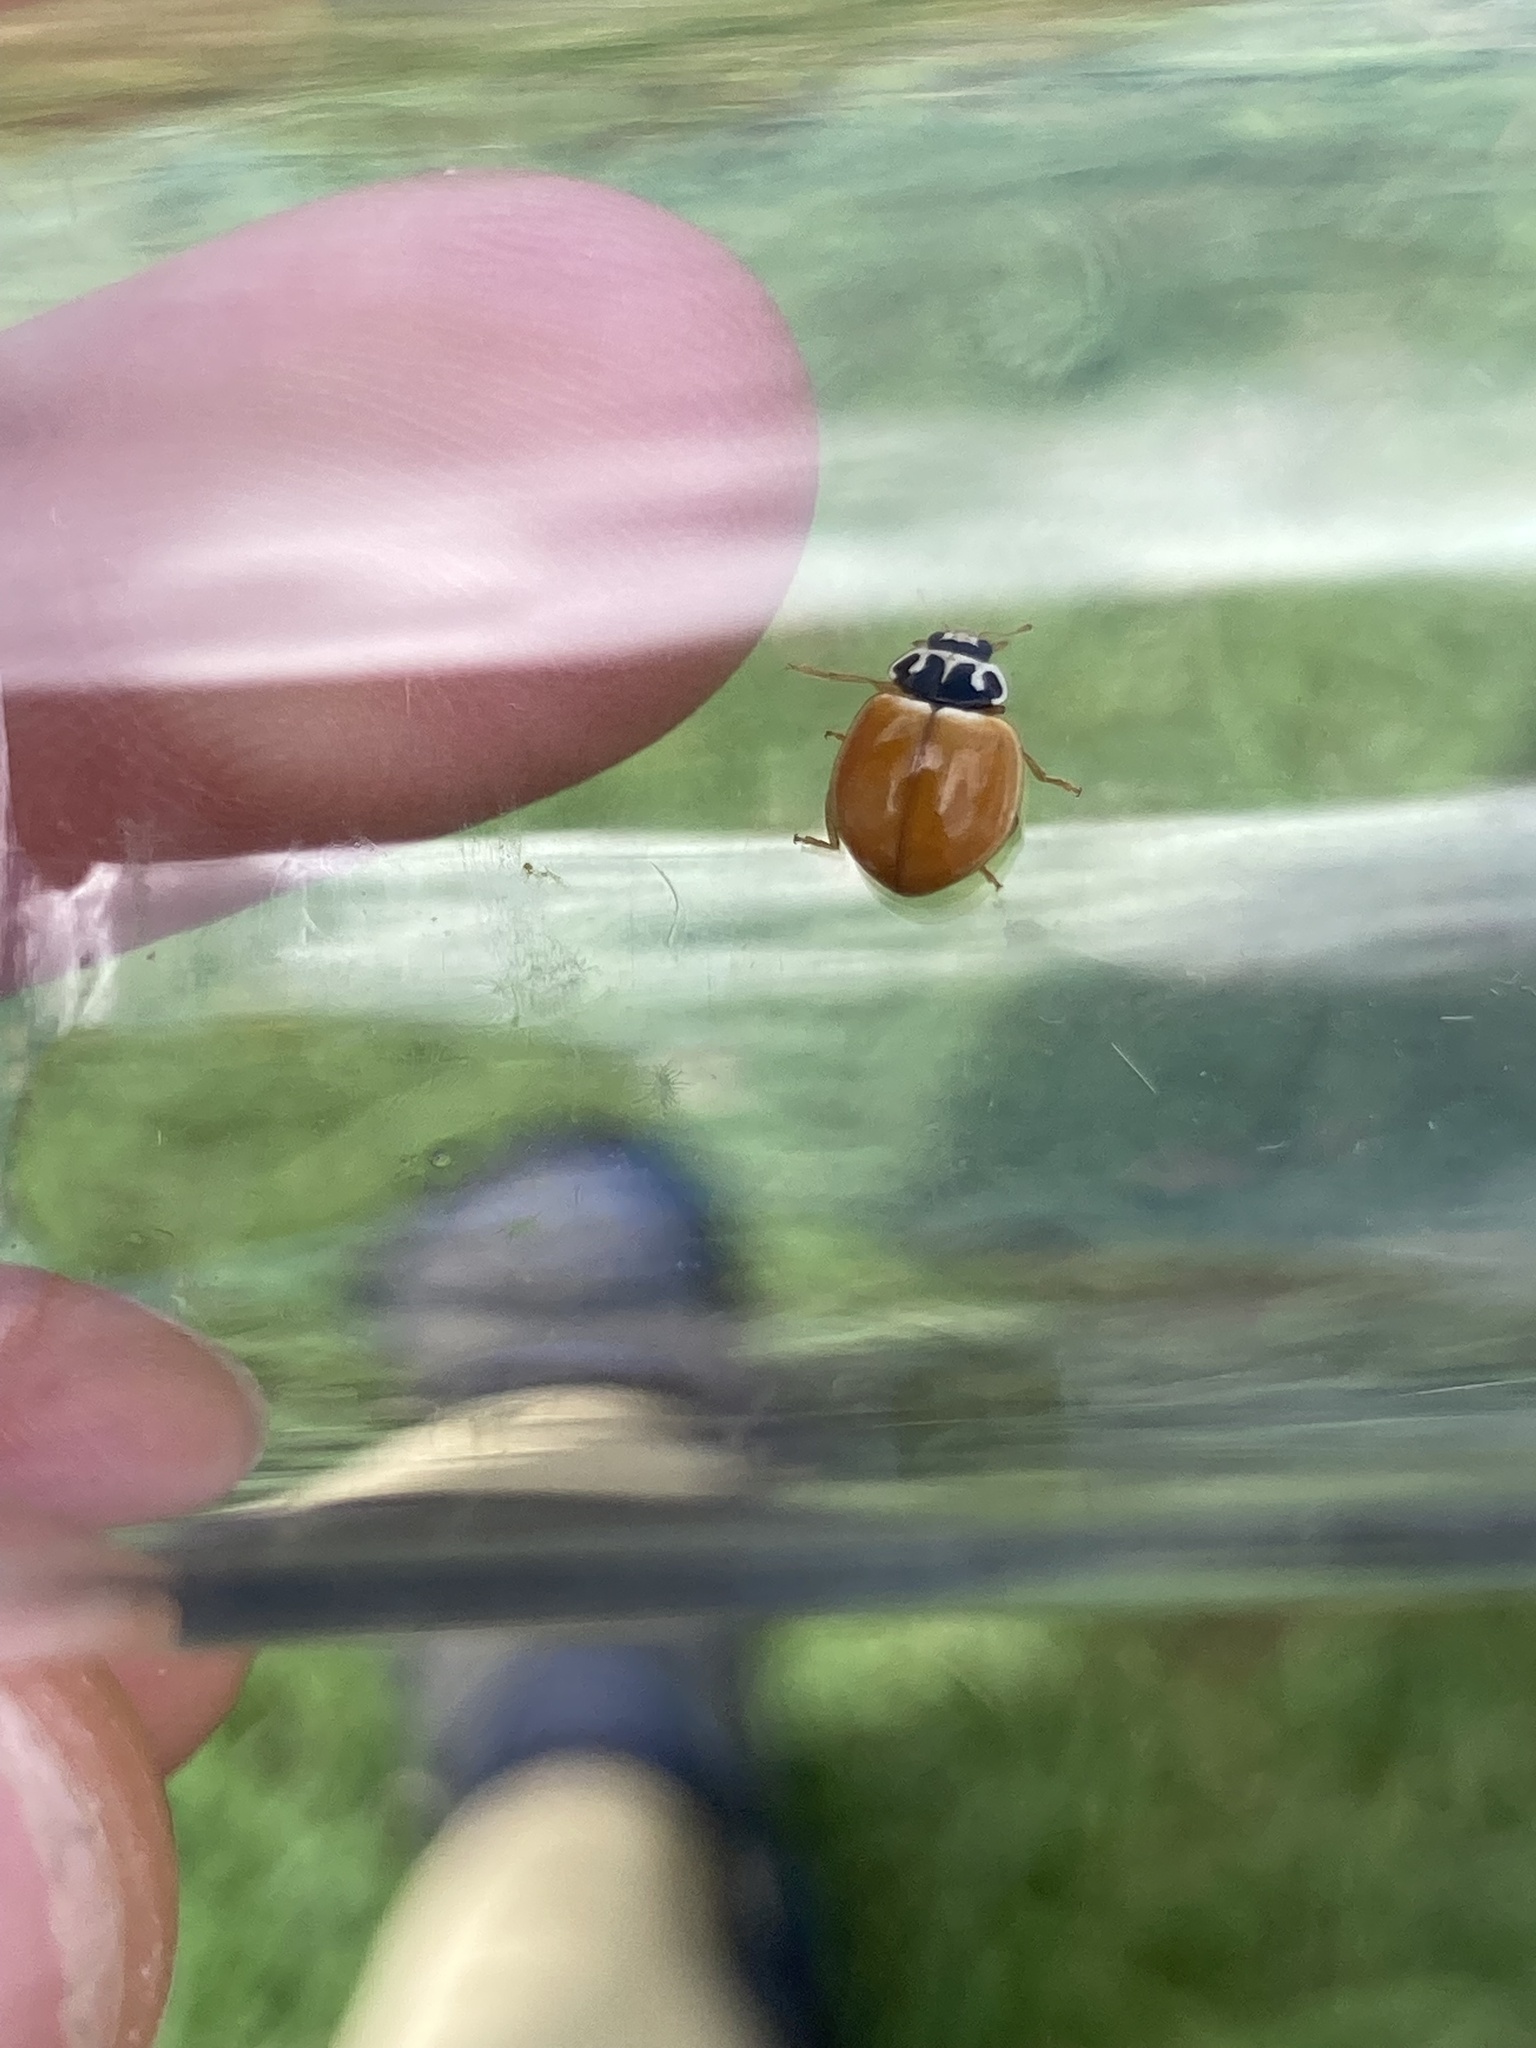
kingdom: Animalia
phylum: Arthropoda
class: Insecta
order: Coleoptera
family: Coccinellidae
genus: Cycloneda
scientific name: Cycloneda munda
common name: Polished lady beetle
